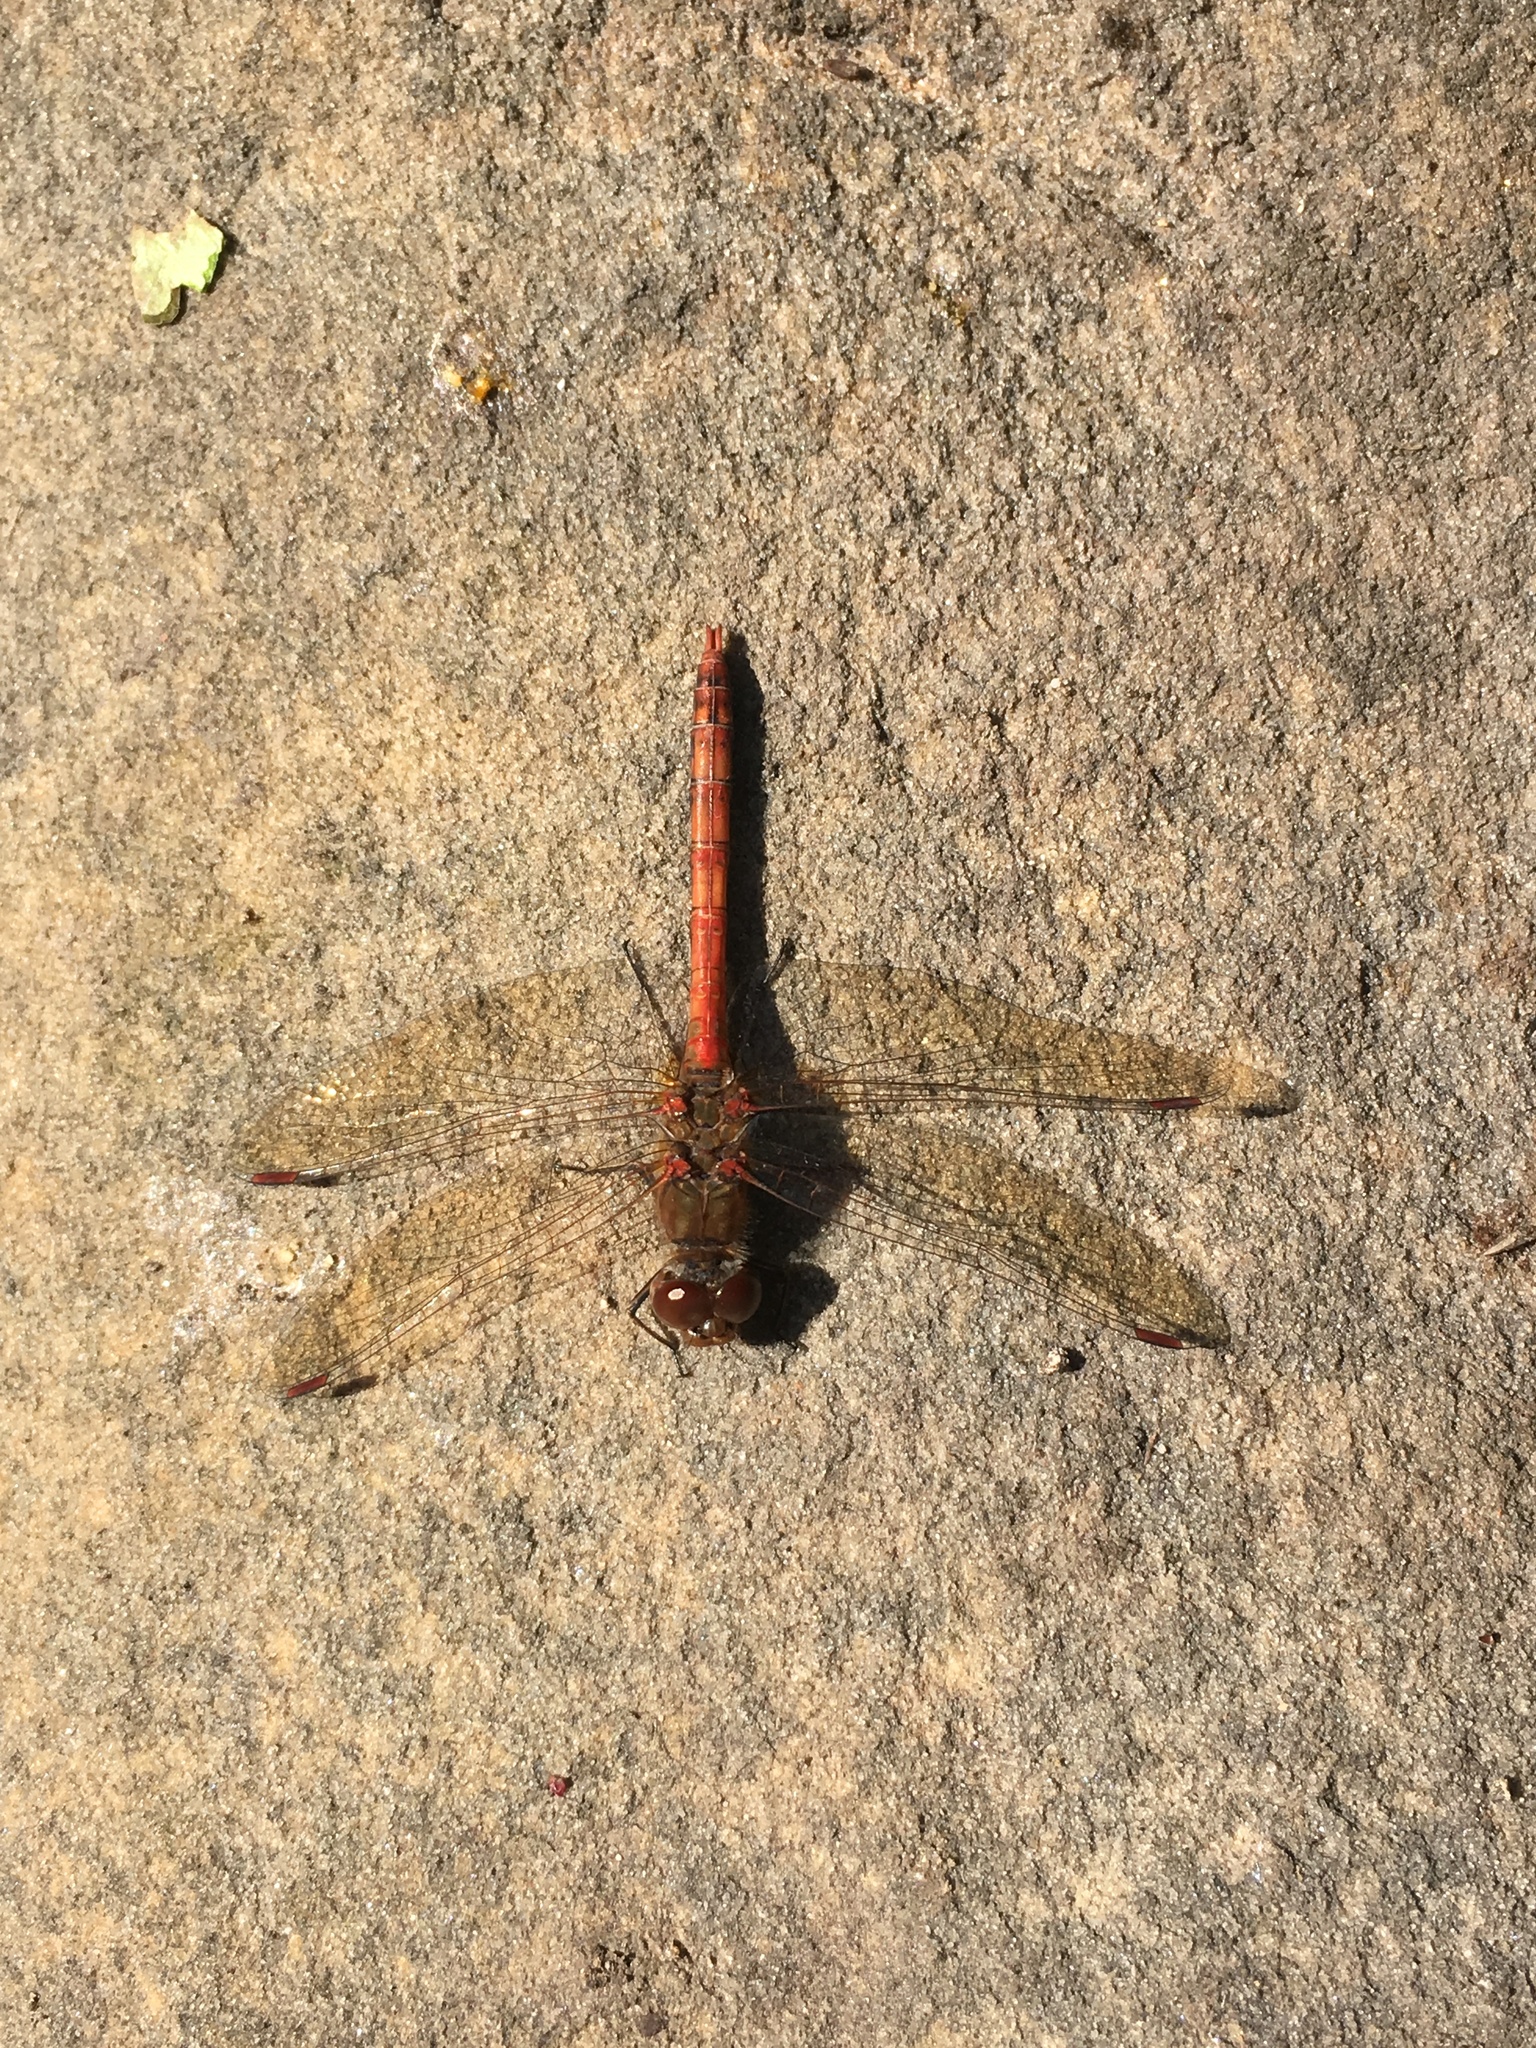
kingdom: Animalia
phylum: Arthropoda
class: Insecta
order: Odonata
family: Libellulidae
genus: Sympetrum
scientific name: Sympetrum striolatum
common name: Common darter
